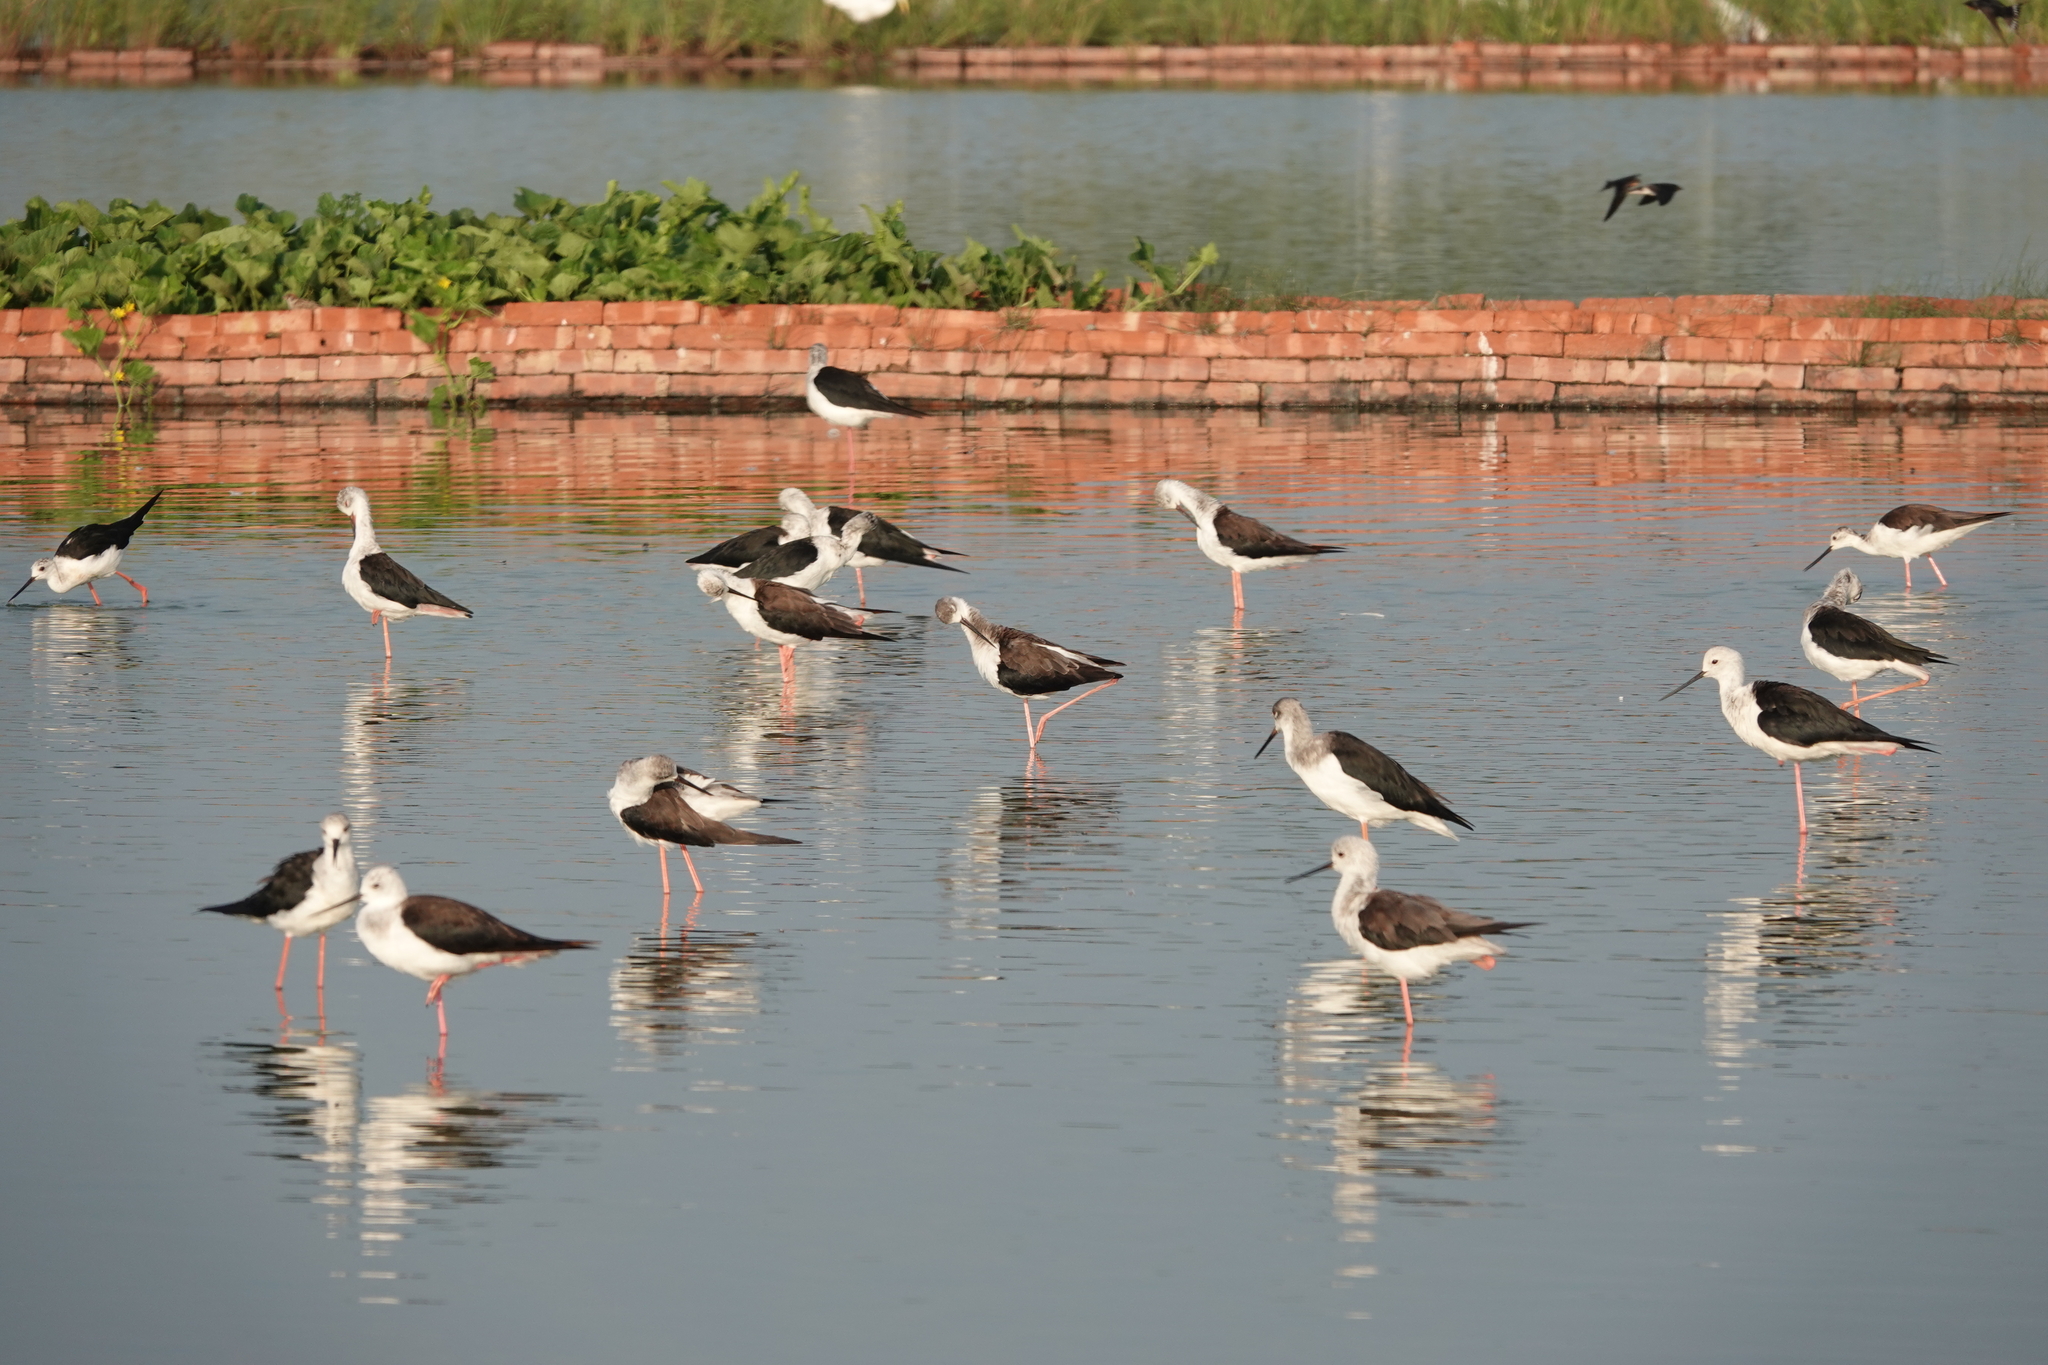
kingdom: Animalia
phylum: Chordata
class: Aves
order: Charadriiformes
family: Recurvirostridae
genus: Himantopus
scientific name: Himantopus himantopus
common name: Black-winged stilt
